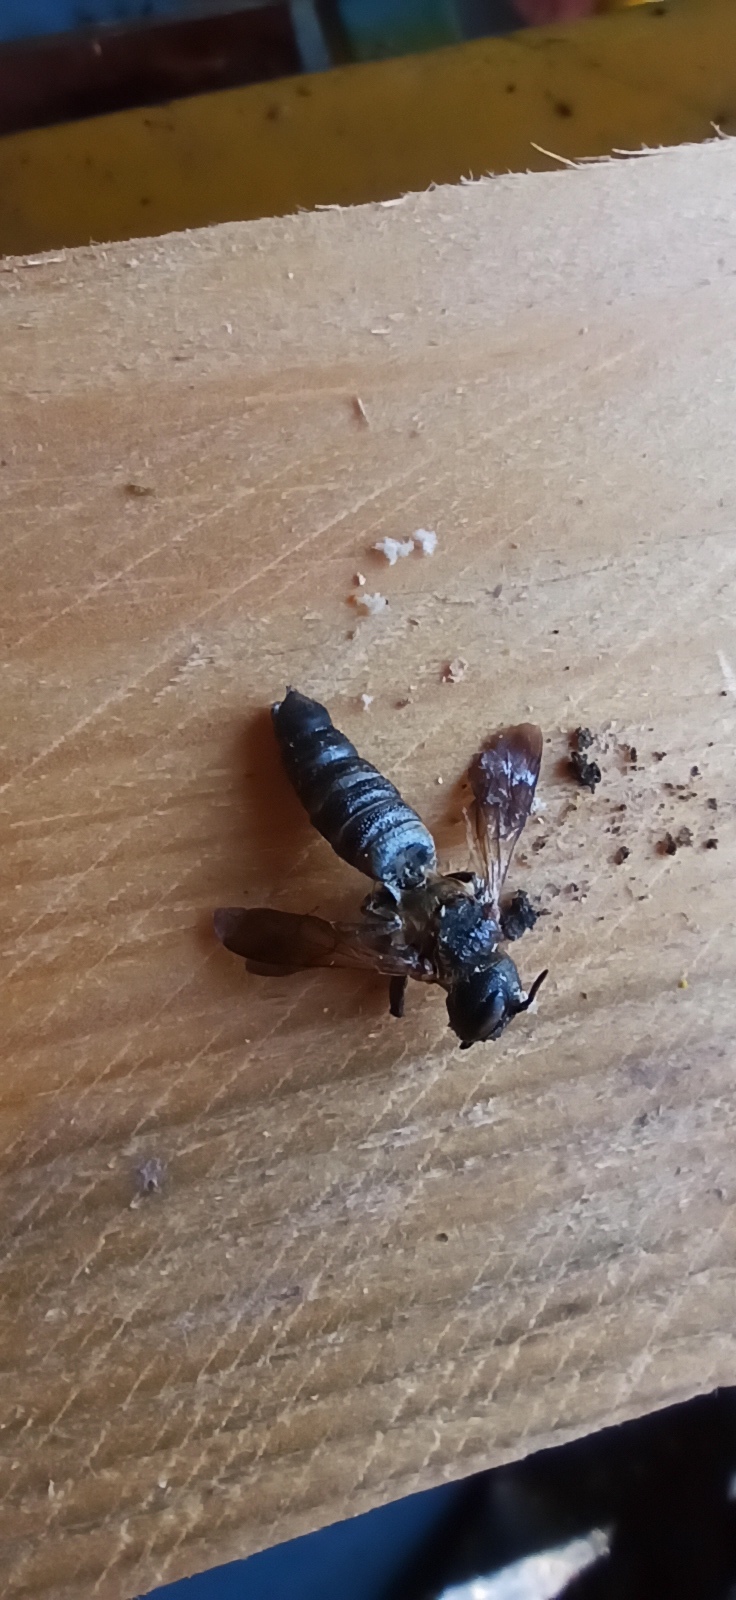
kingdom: Animalia
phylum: Arthropoda
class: Insecta
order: Hymenoptera
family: Megachilidae
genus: Megachile
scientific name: Megachile sculpturalis
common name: Sculptured resin bee
